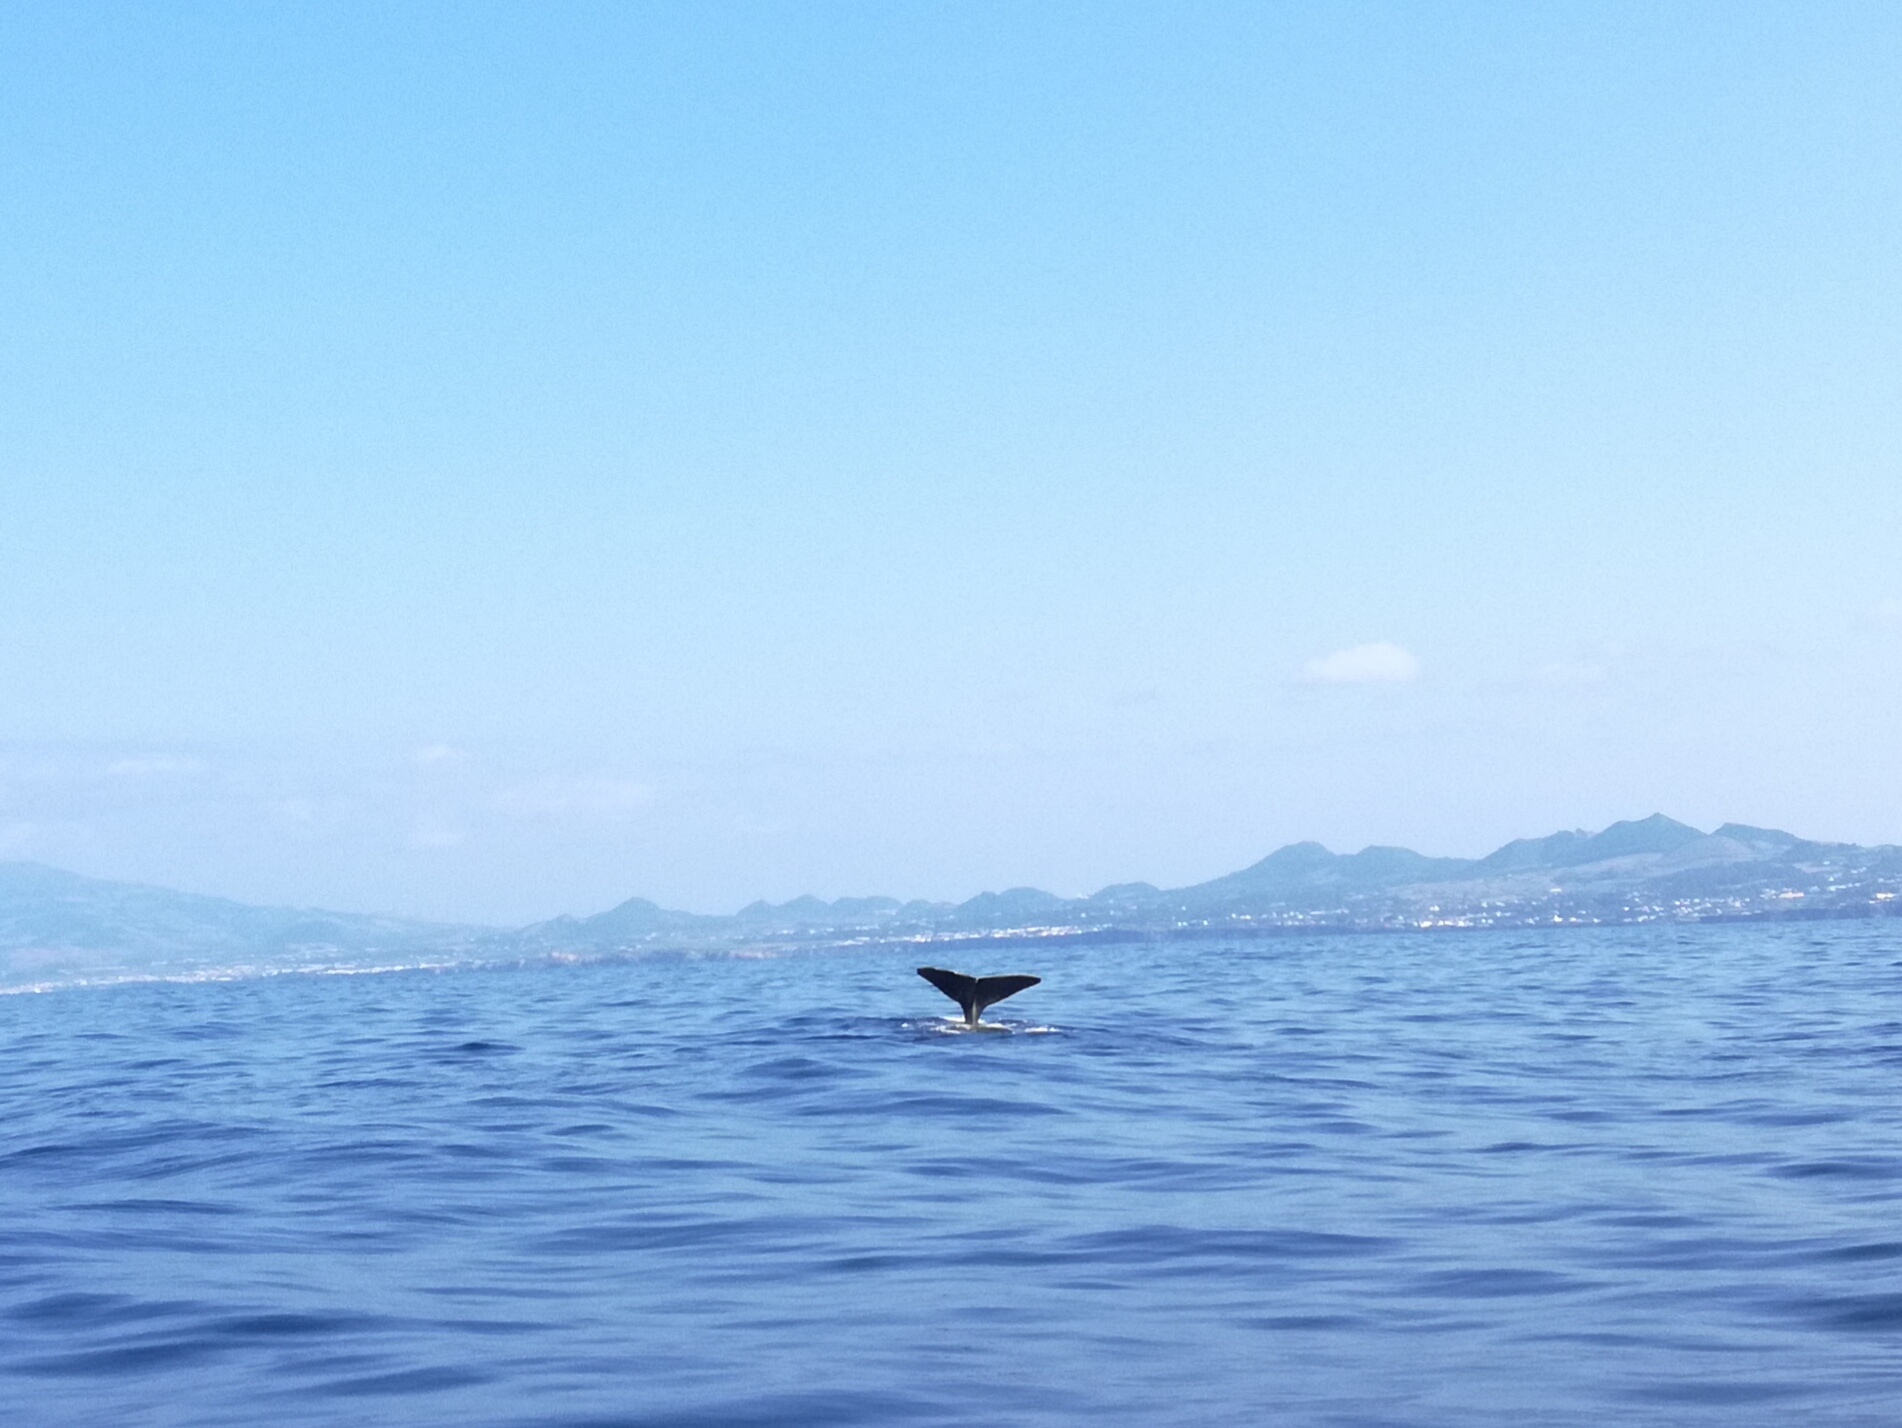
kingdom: Animalia
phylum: Chordata
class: Mammalia
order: Cetacea
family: Physeteridae
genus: Physeter
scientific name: Physeter macrocephalus
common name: Sperm whale
